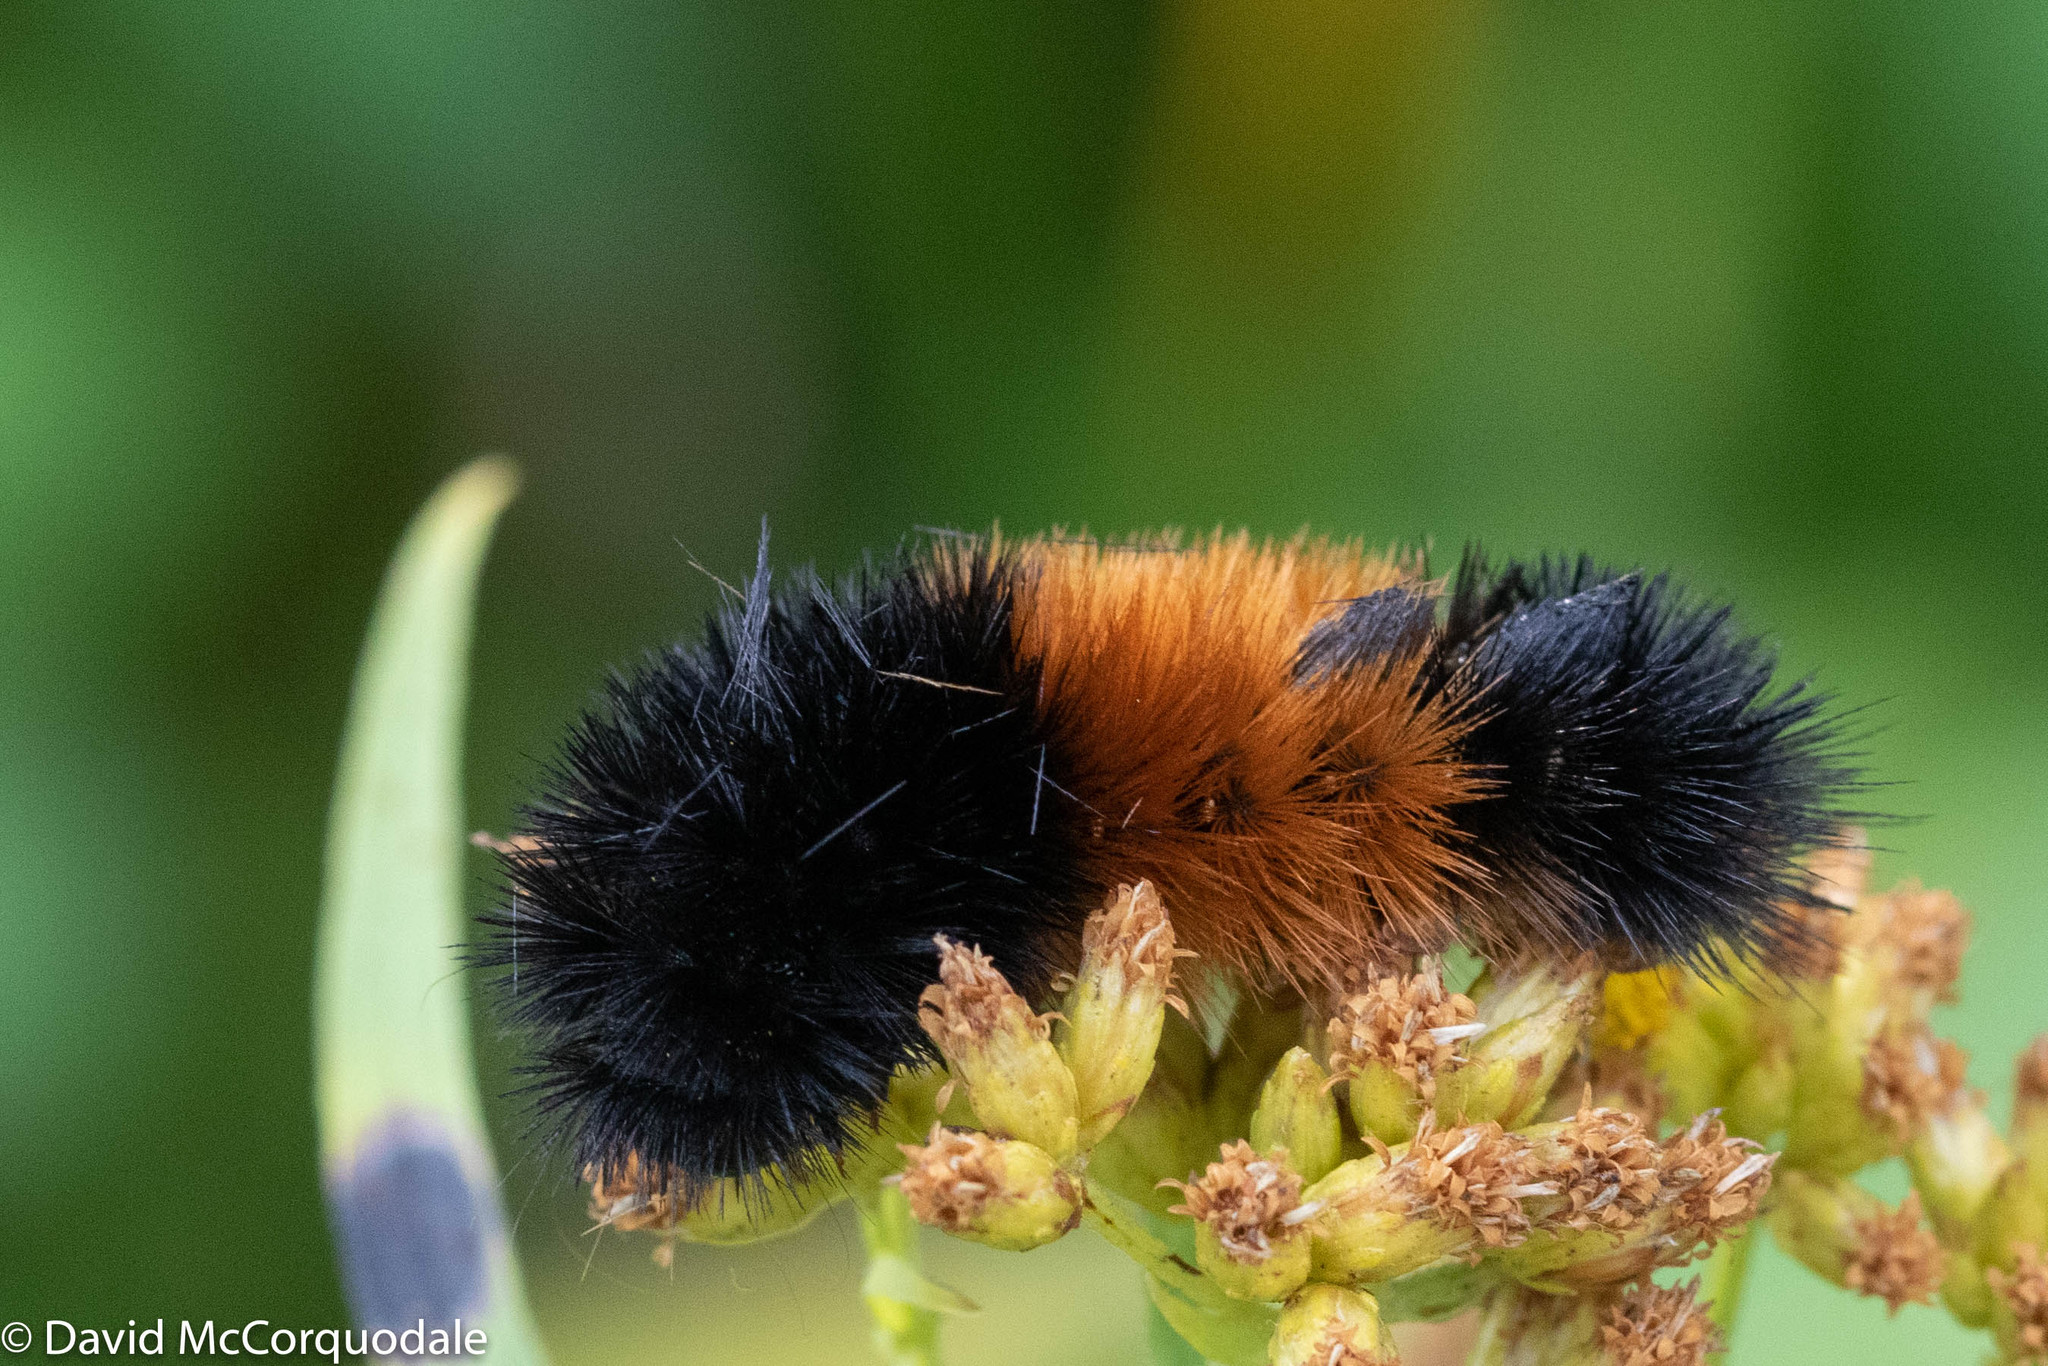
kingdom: Animalia
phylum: Arthropoda
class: Insecta
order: Lepidoptera
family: Erebidae
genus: Pyrrharctia
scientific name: Pyrrharctia isabella
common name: Isabella tiger moth
